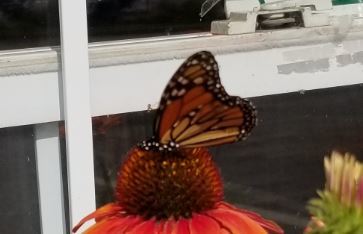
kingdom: Animalia
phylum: Arthropoda
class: Insecta
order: Lepidoptera
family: Nymphalidae
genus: Danaus
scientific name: Danaus plexippus
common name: Monarch
